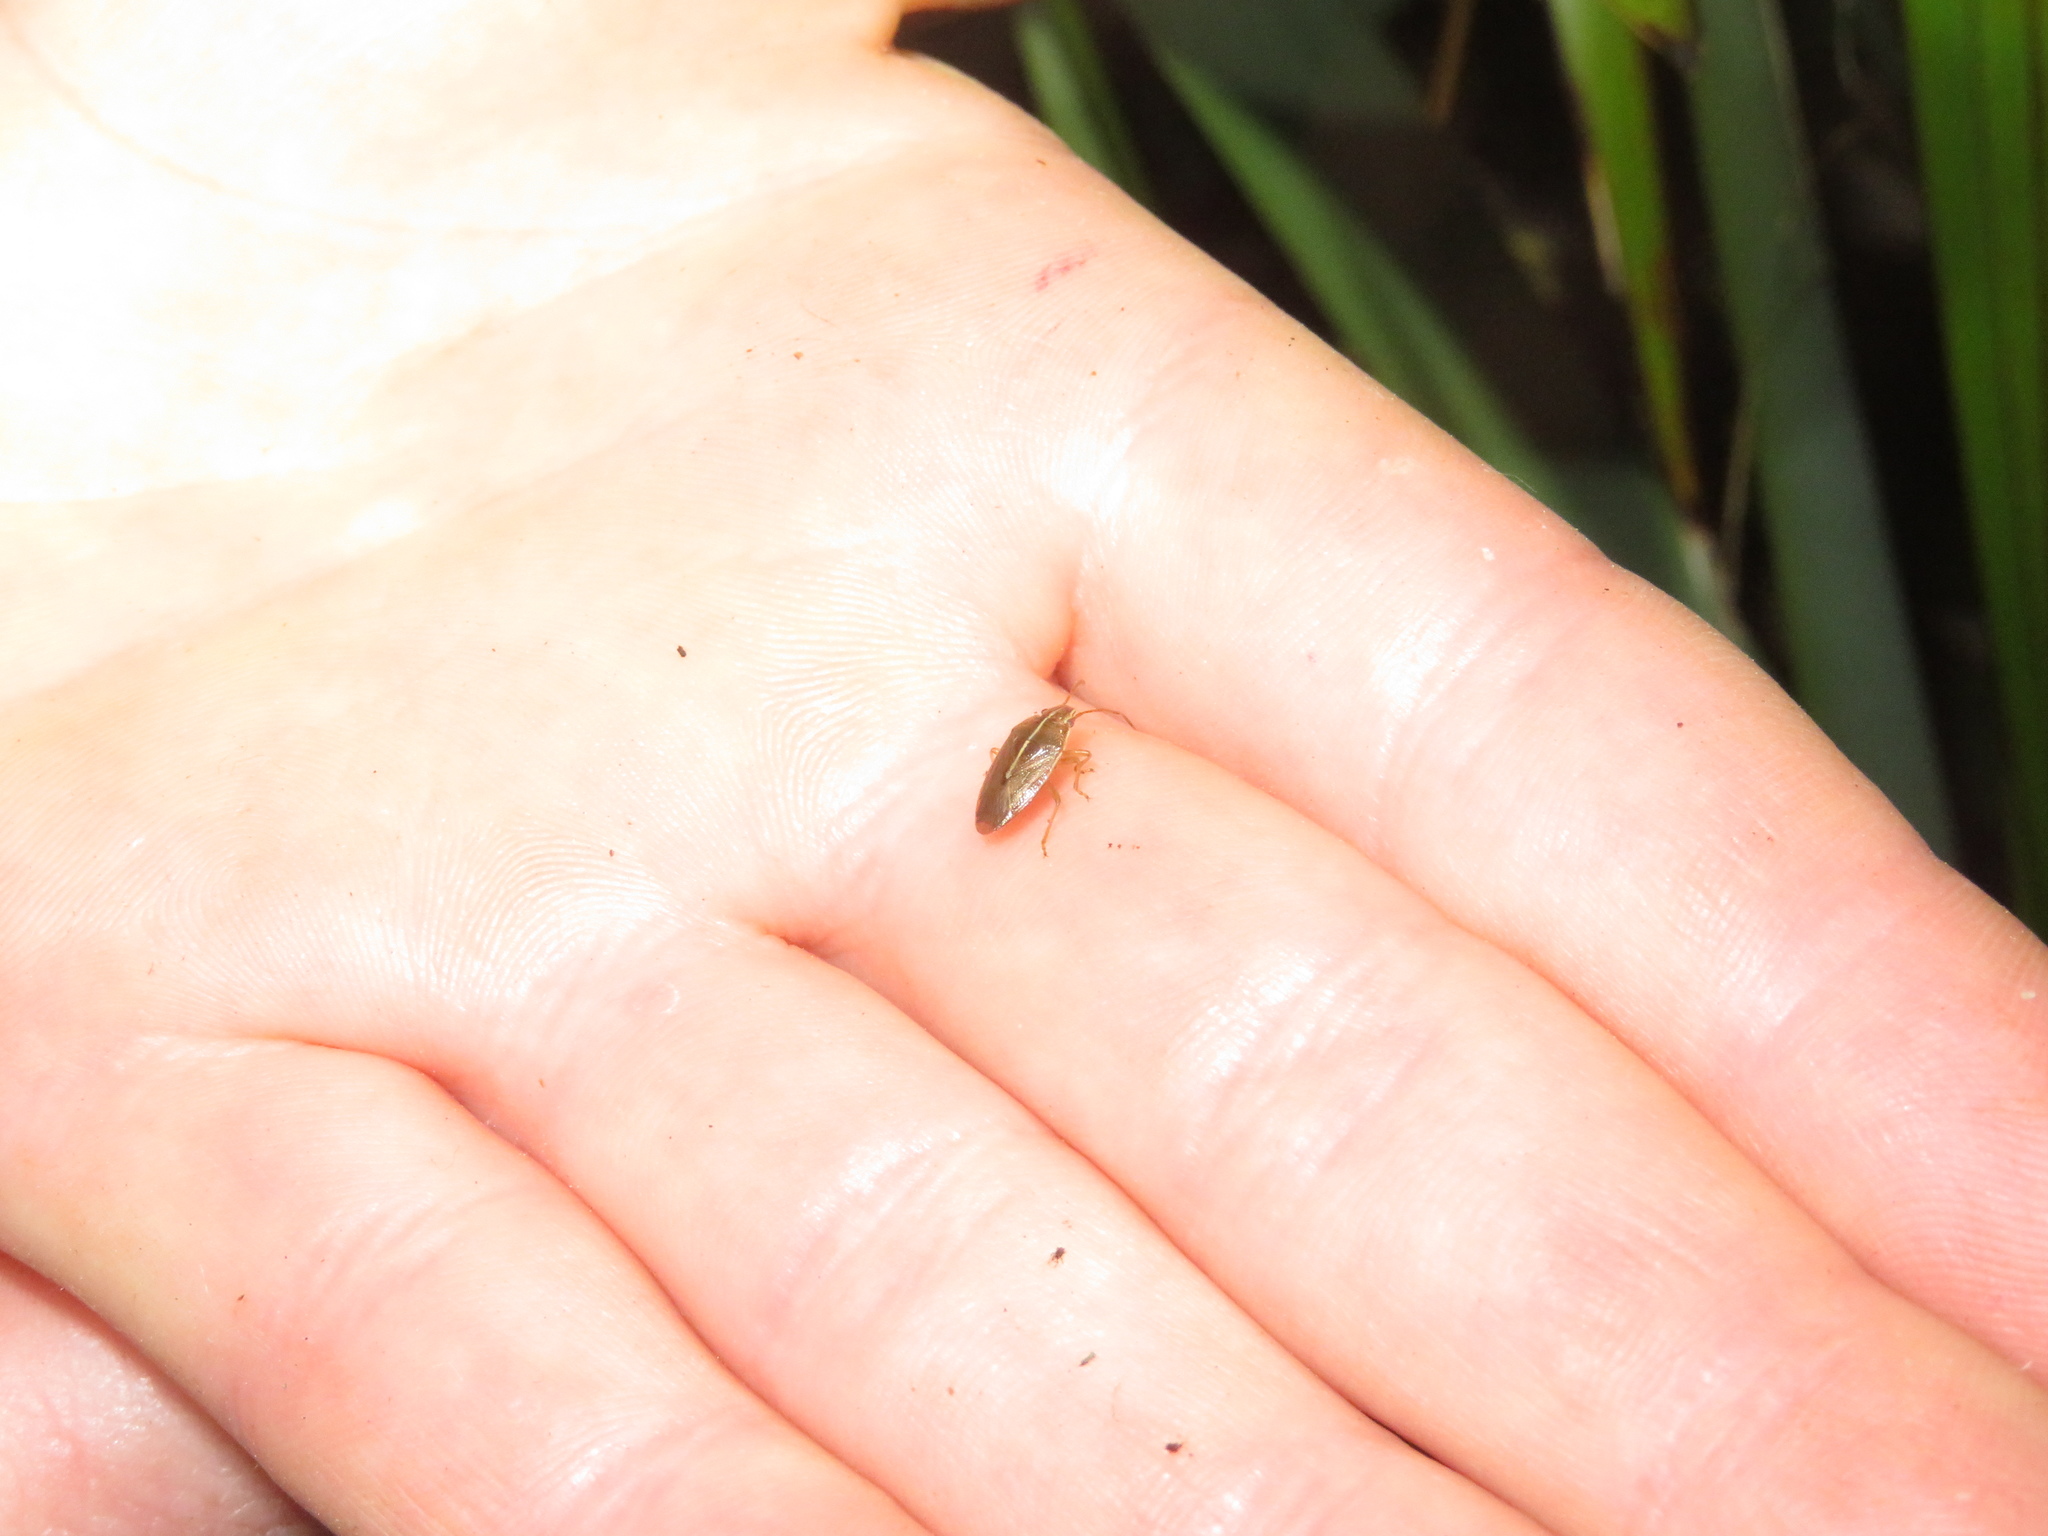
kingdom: Animalia
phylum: Arthropoda
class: Insecta
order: Hemiptera
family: Acanthosomatidae
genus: Rhopalimorpha
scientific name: Rhopalimorpha lineolaris
